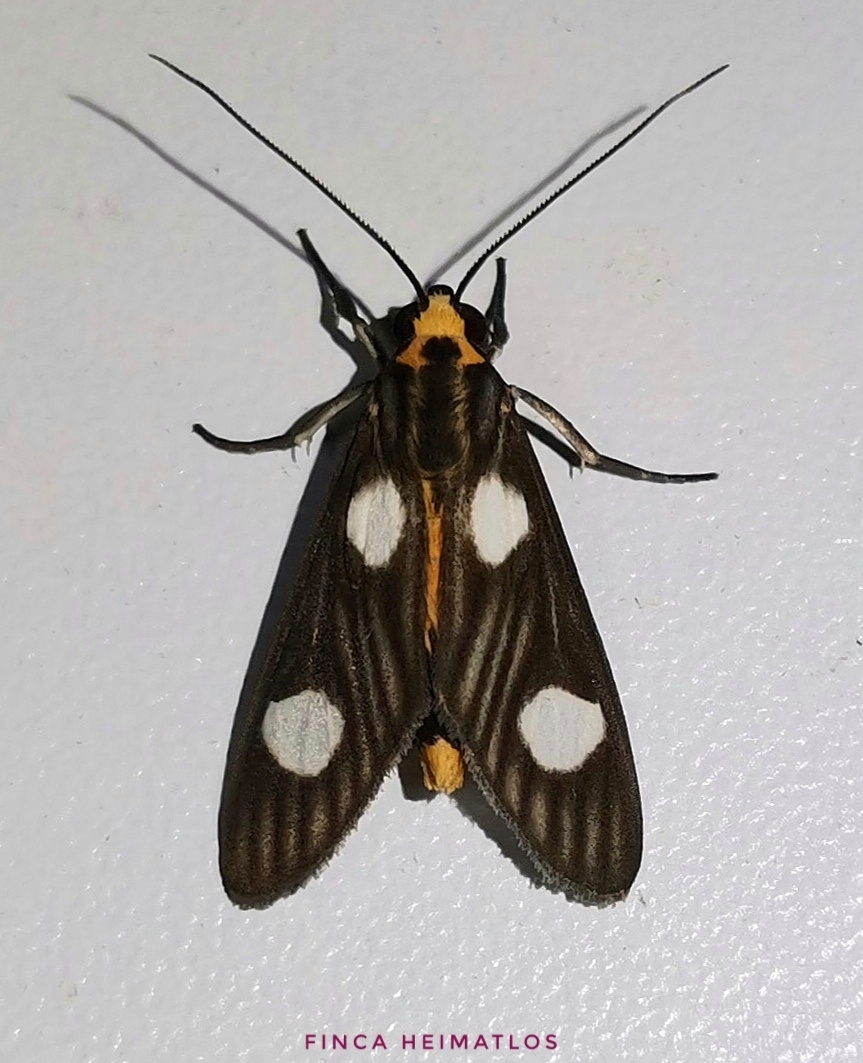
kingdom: Animalia
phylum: Arthropoda
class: Insecta
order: Lepidoptera
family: Erebidae
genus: Glaucostola
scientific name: Glaucostola binotata
